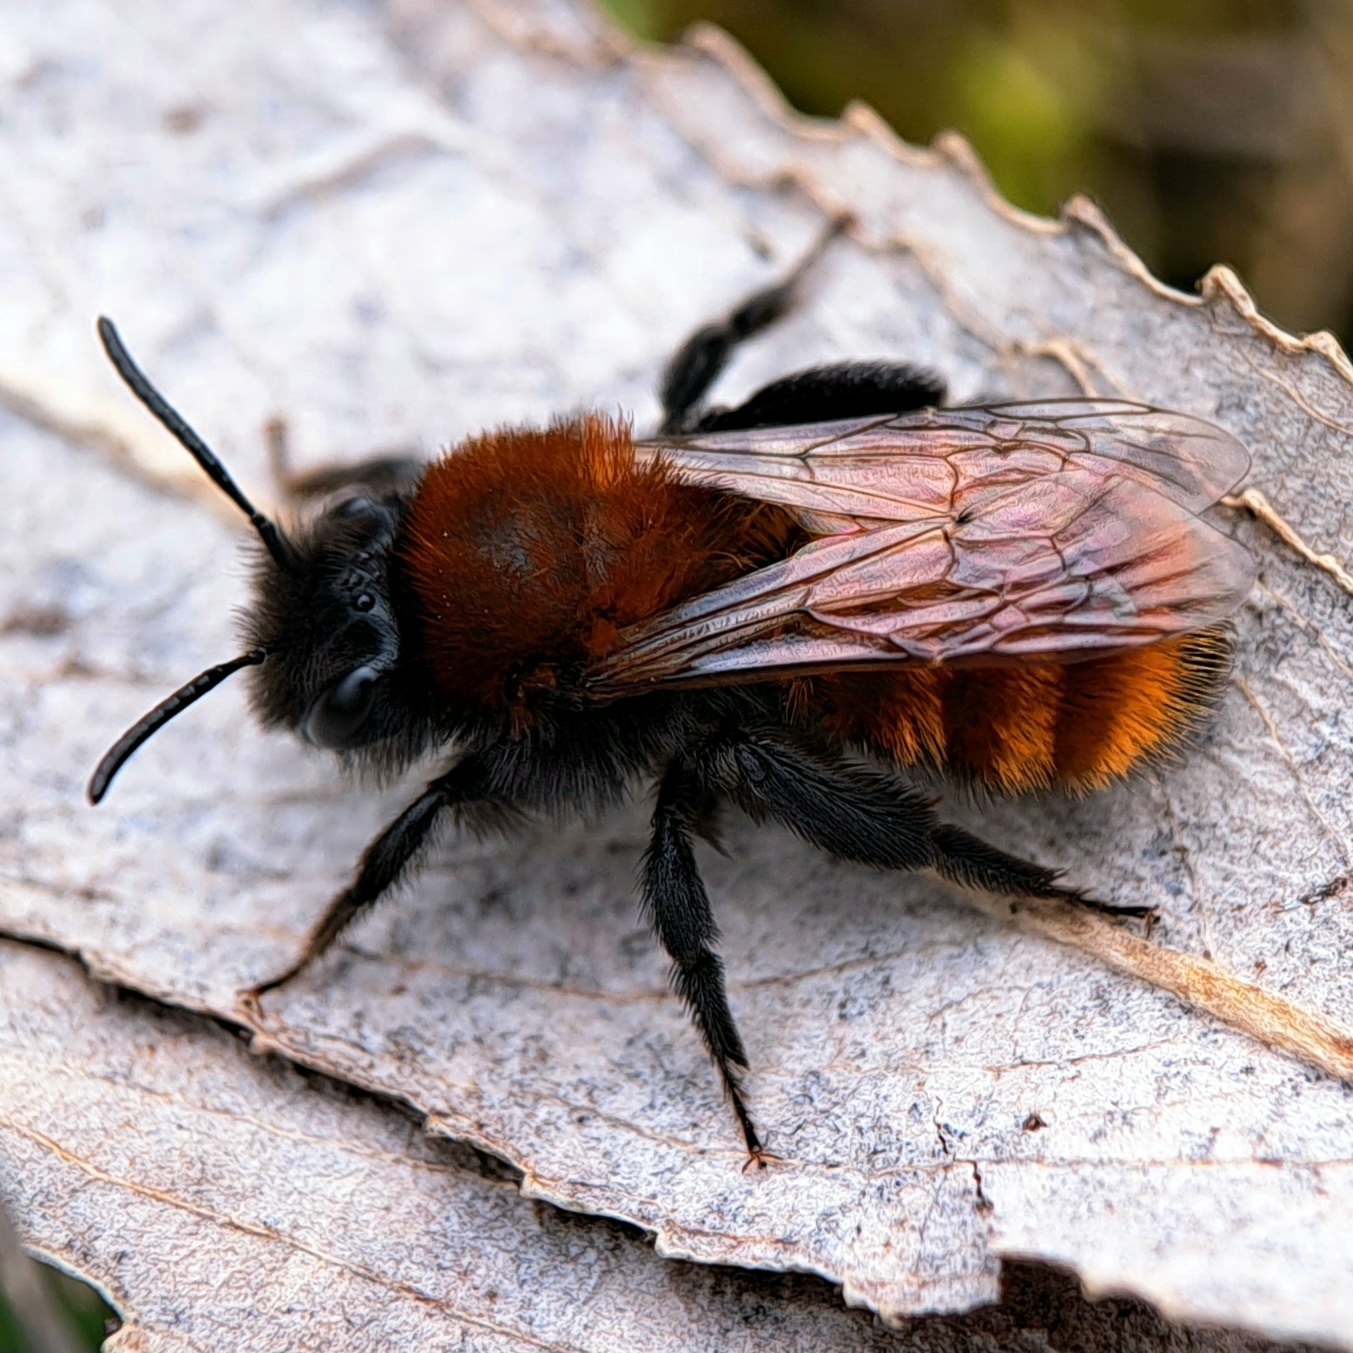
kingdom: Animalia
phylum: Arthropoda
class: Insecta
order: Hymenoptera
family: Andrenidae
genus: Andrena
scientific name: Andrena fulva
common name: Tawny mining bee
